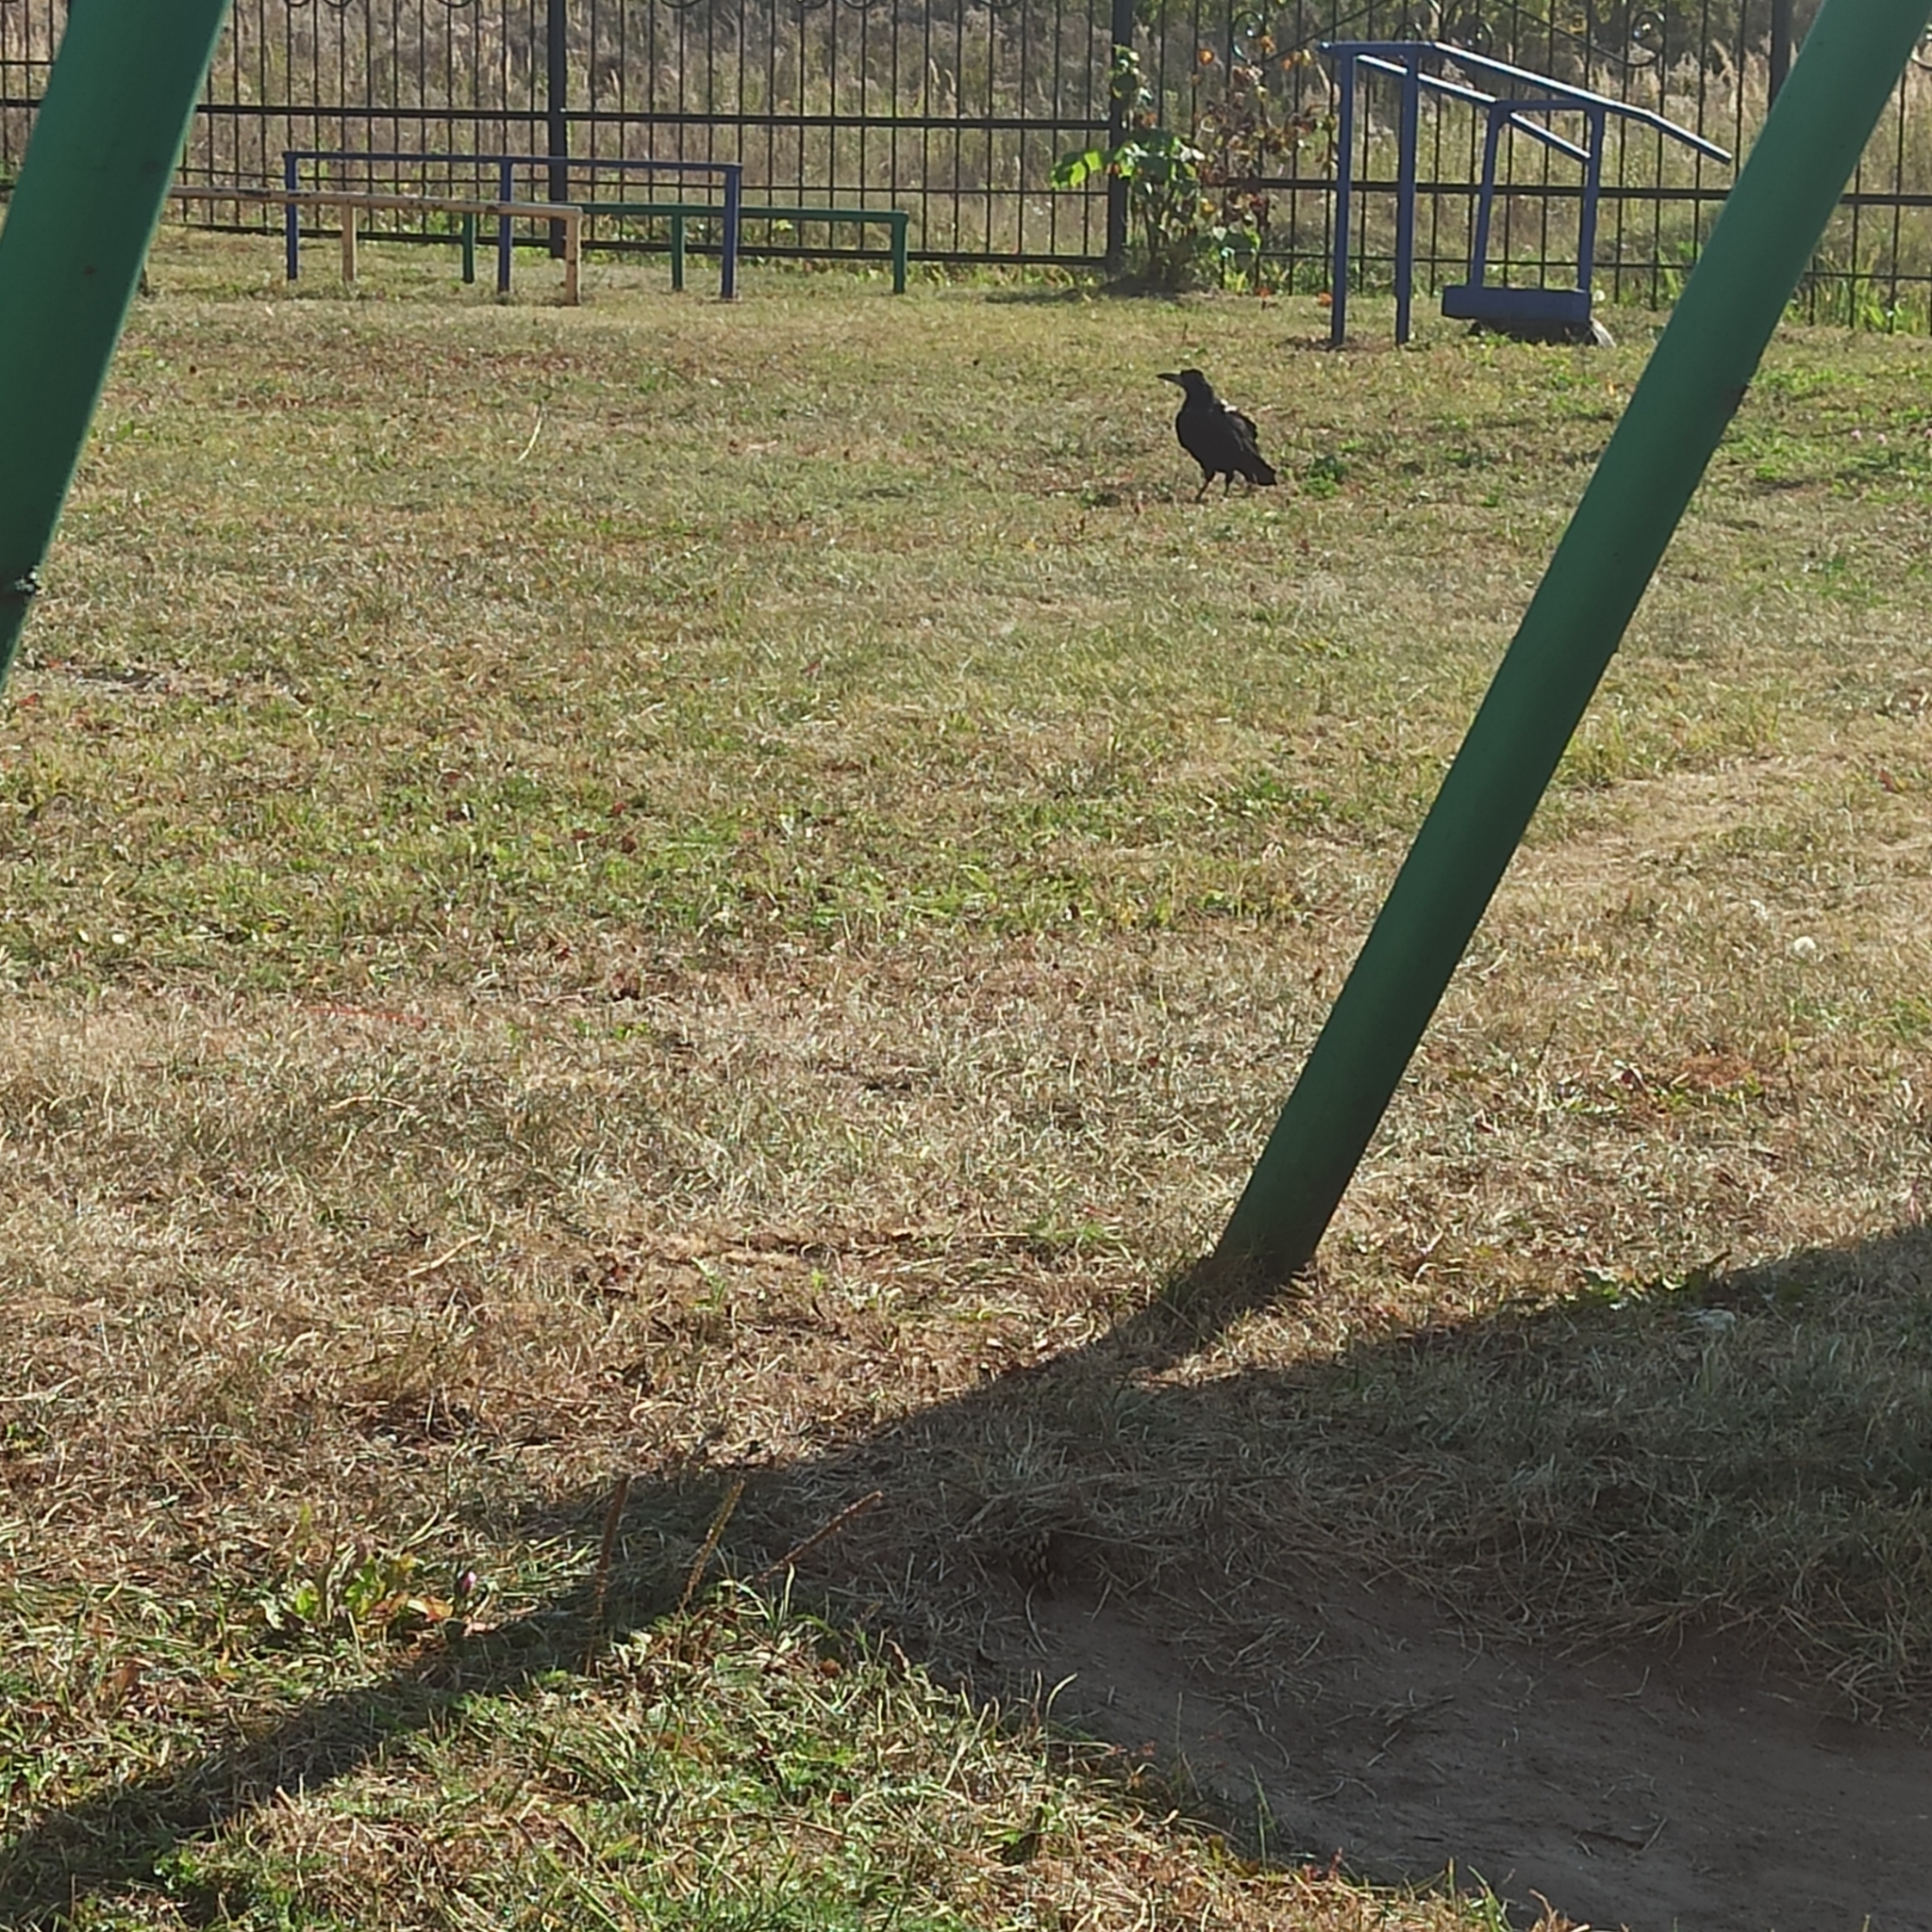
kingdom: Animalia
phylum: Chordata
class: Aves
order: Passeriformes
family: Corvidae
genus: Corvus
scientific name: Corvus frugilegus
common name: Rook
